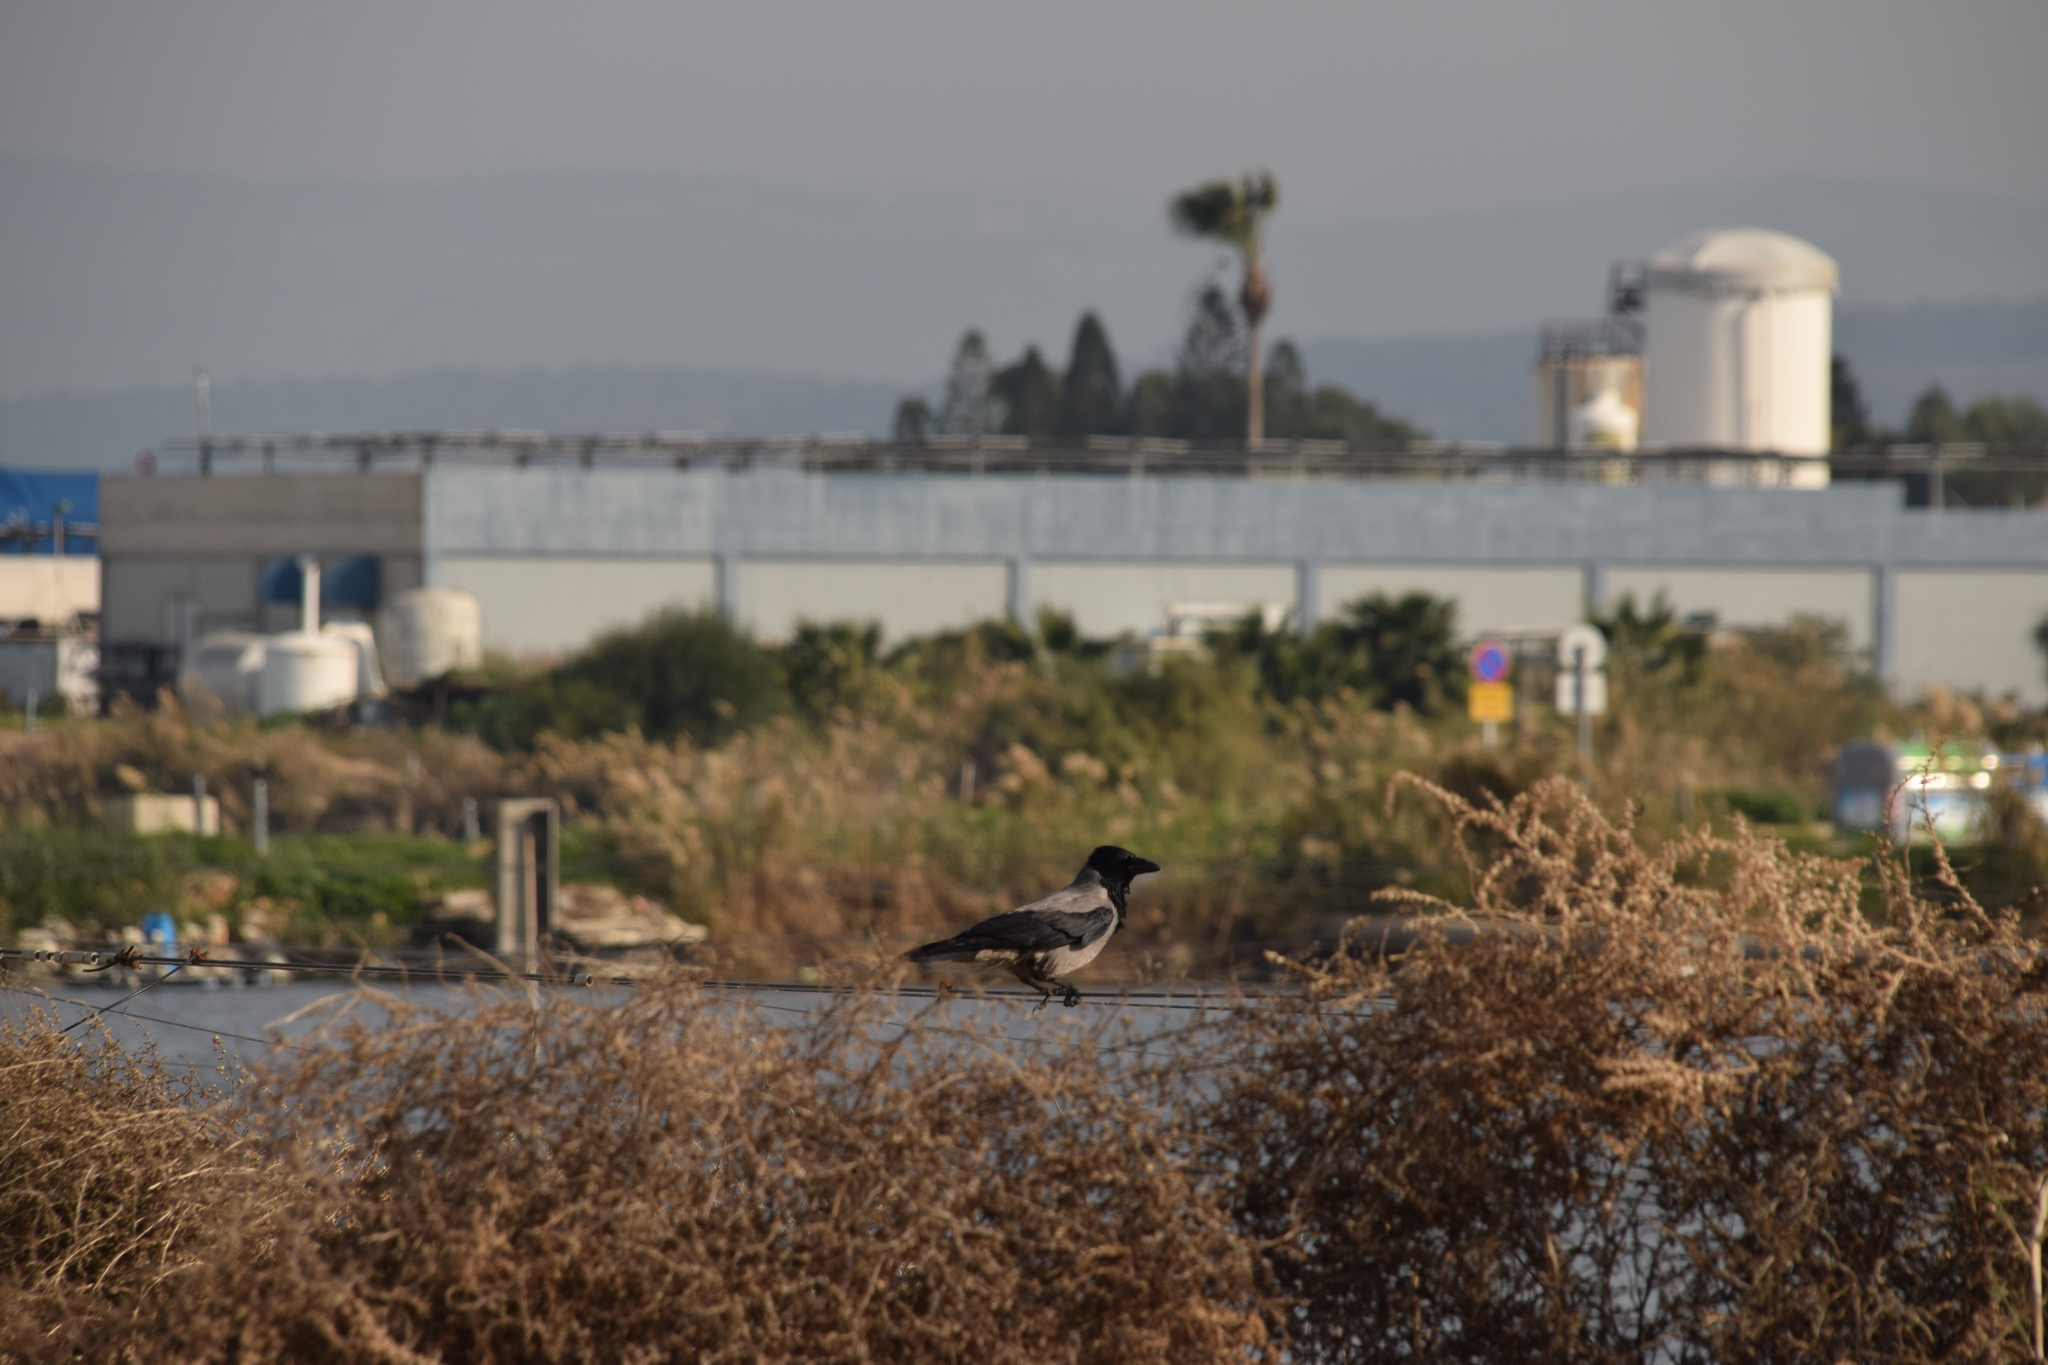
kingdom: Animalia
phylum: Chordata
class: Aves
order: Passeriformes
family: Corvidae
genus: Corvus
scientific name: Corvus cornix
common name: Hooded crow
